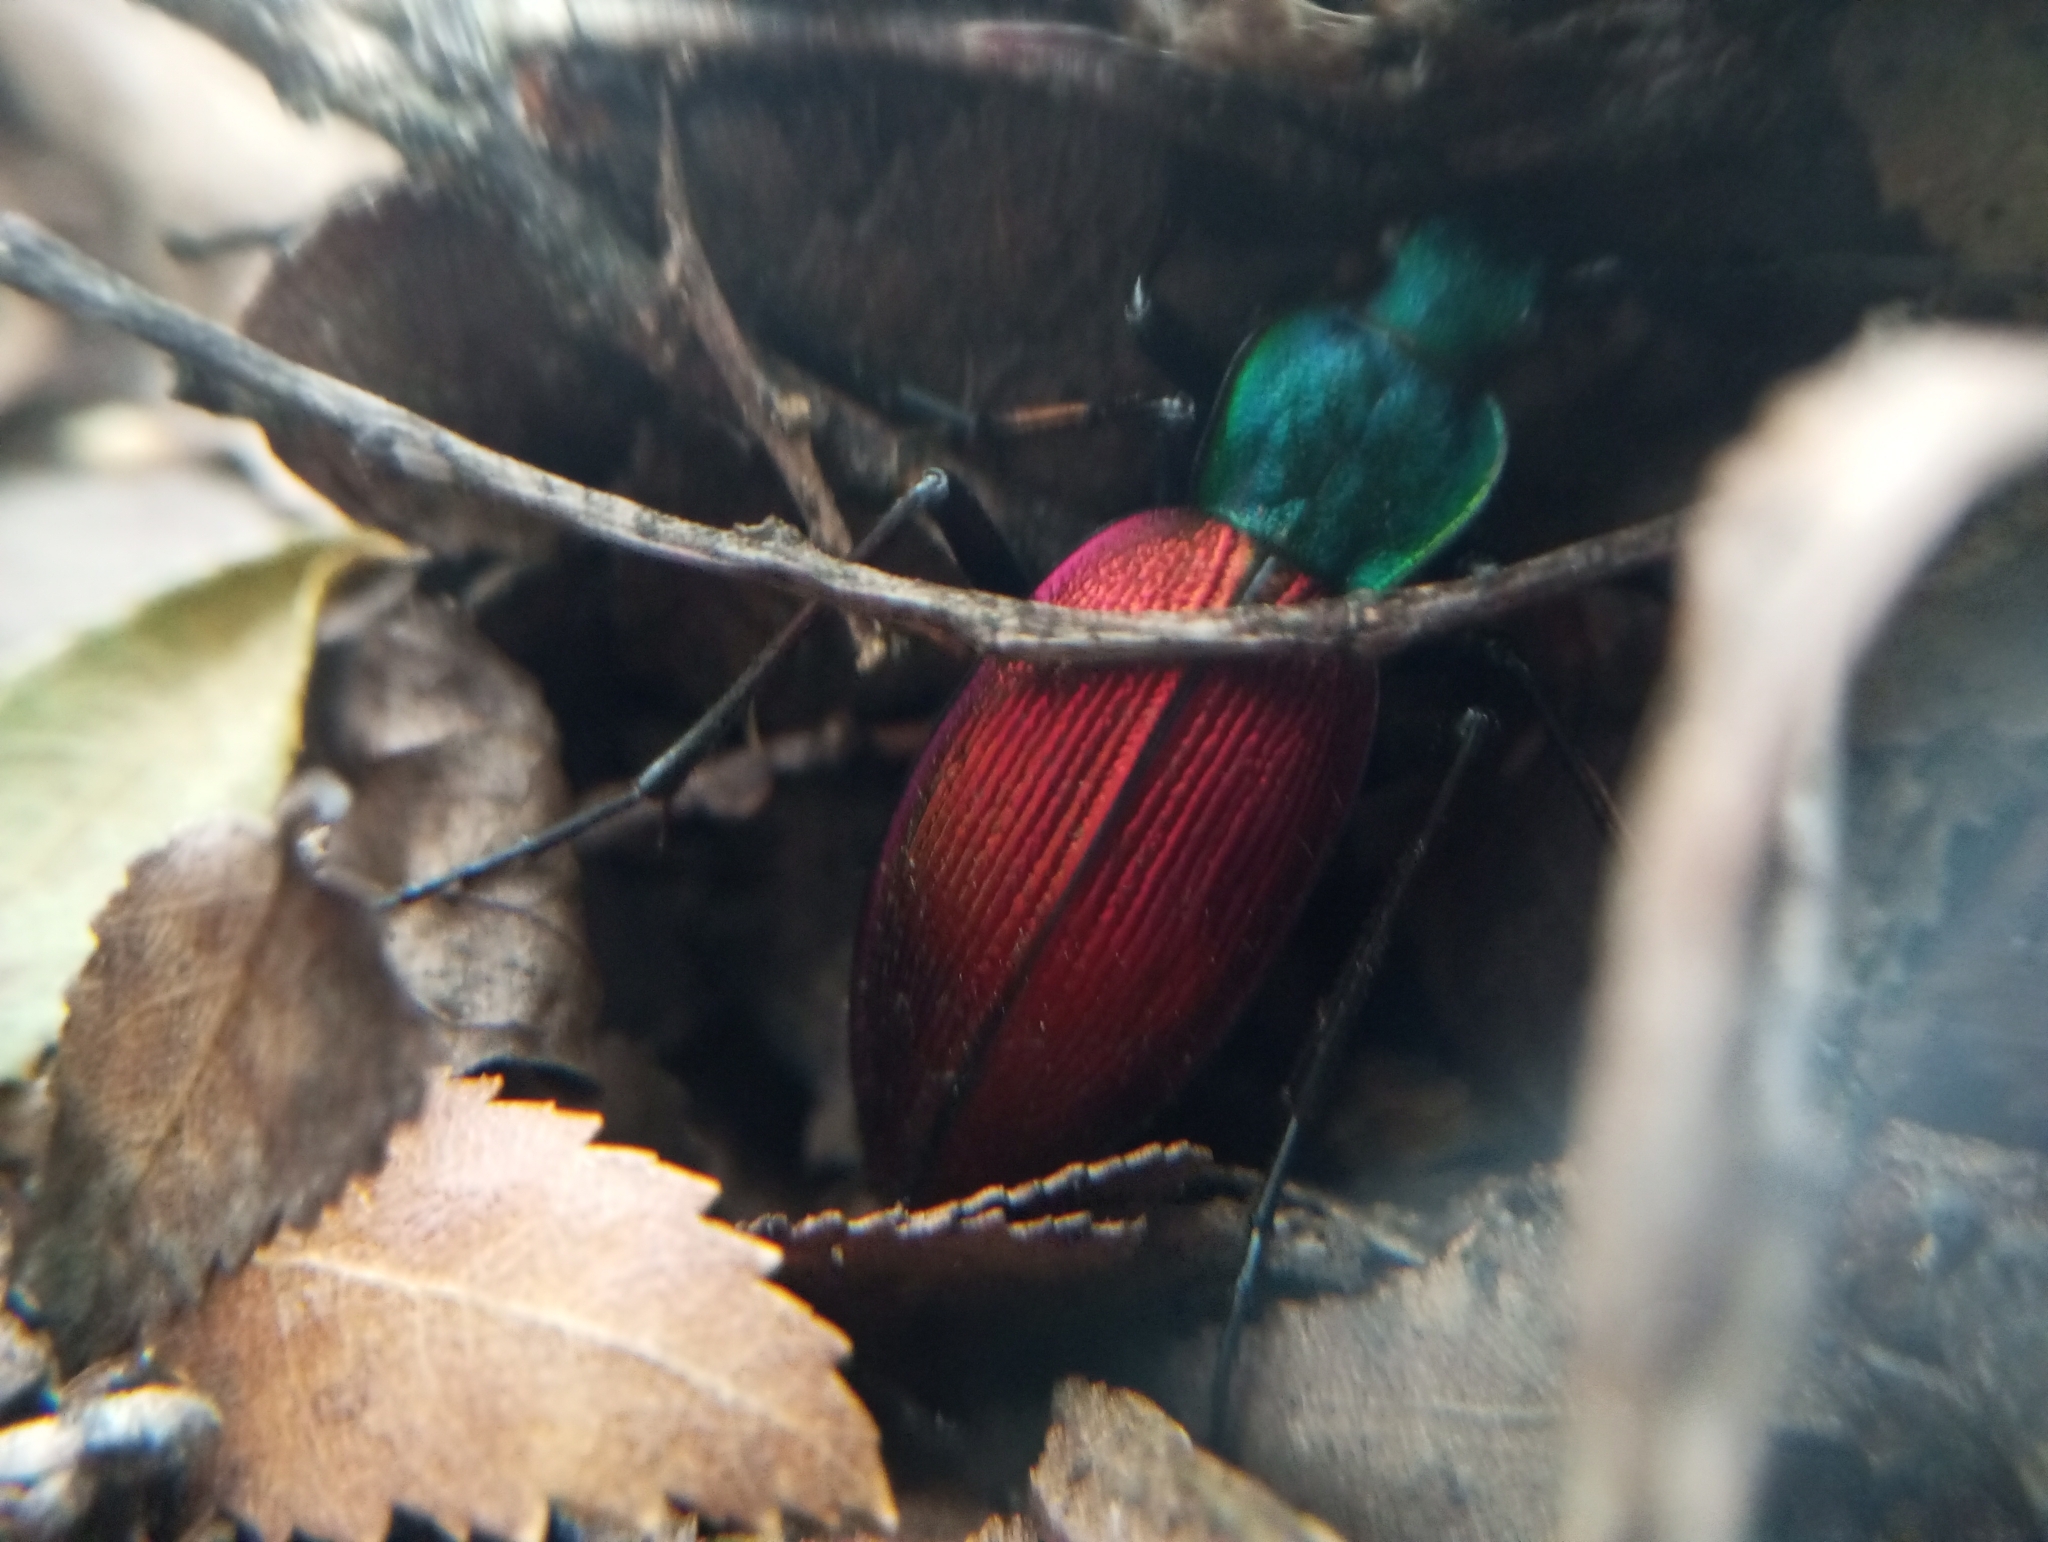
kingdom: Animalia
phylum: Arthropoda
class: Insecta
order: Coleoptera
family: Carabidae
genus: Ceroglossus
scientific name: Ceroglossus chilensis
